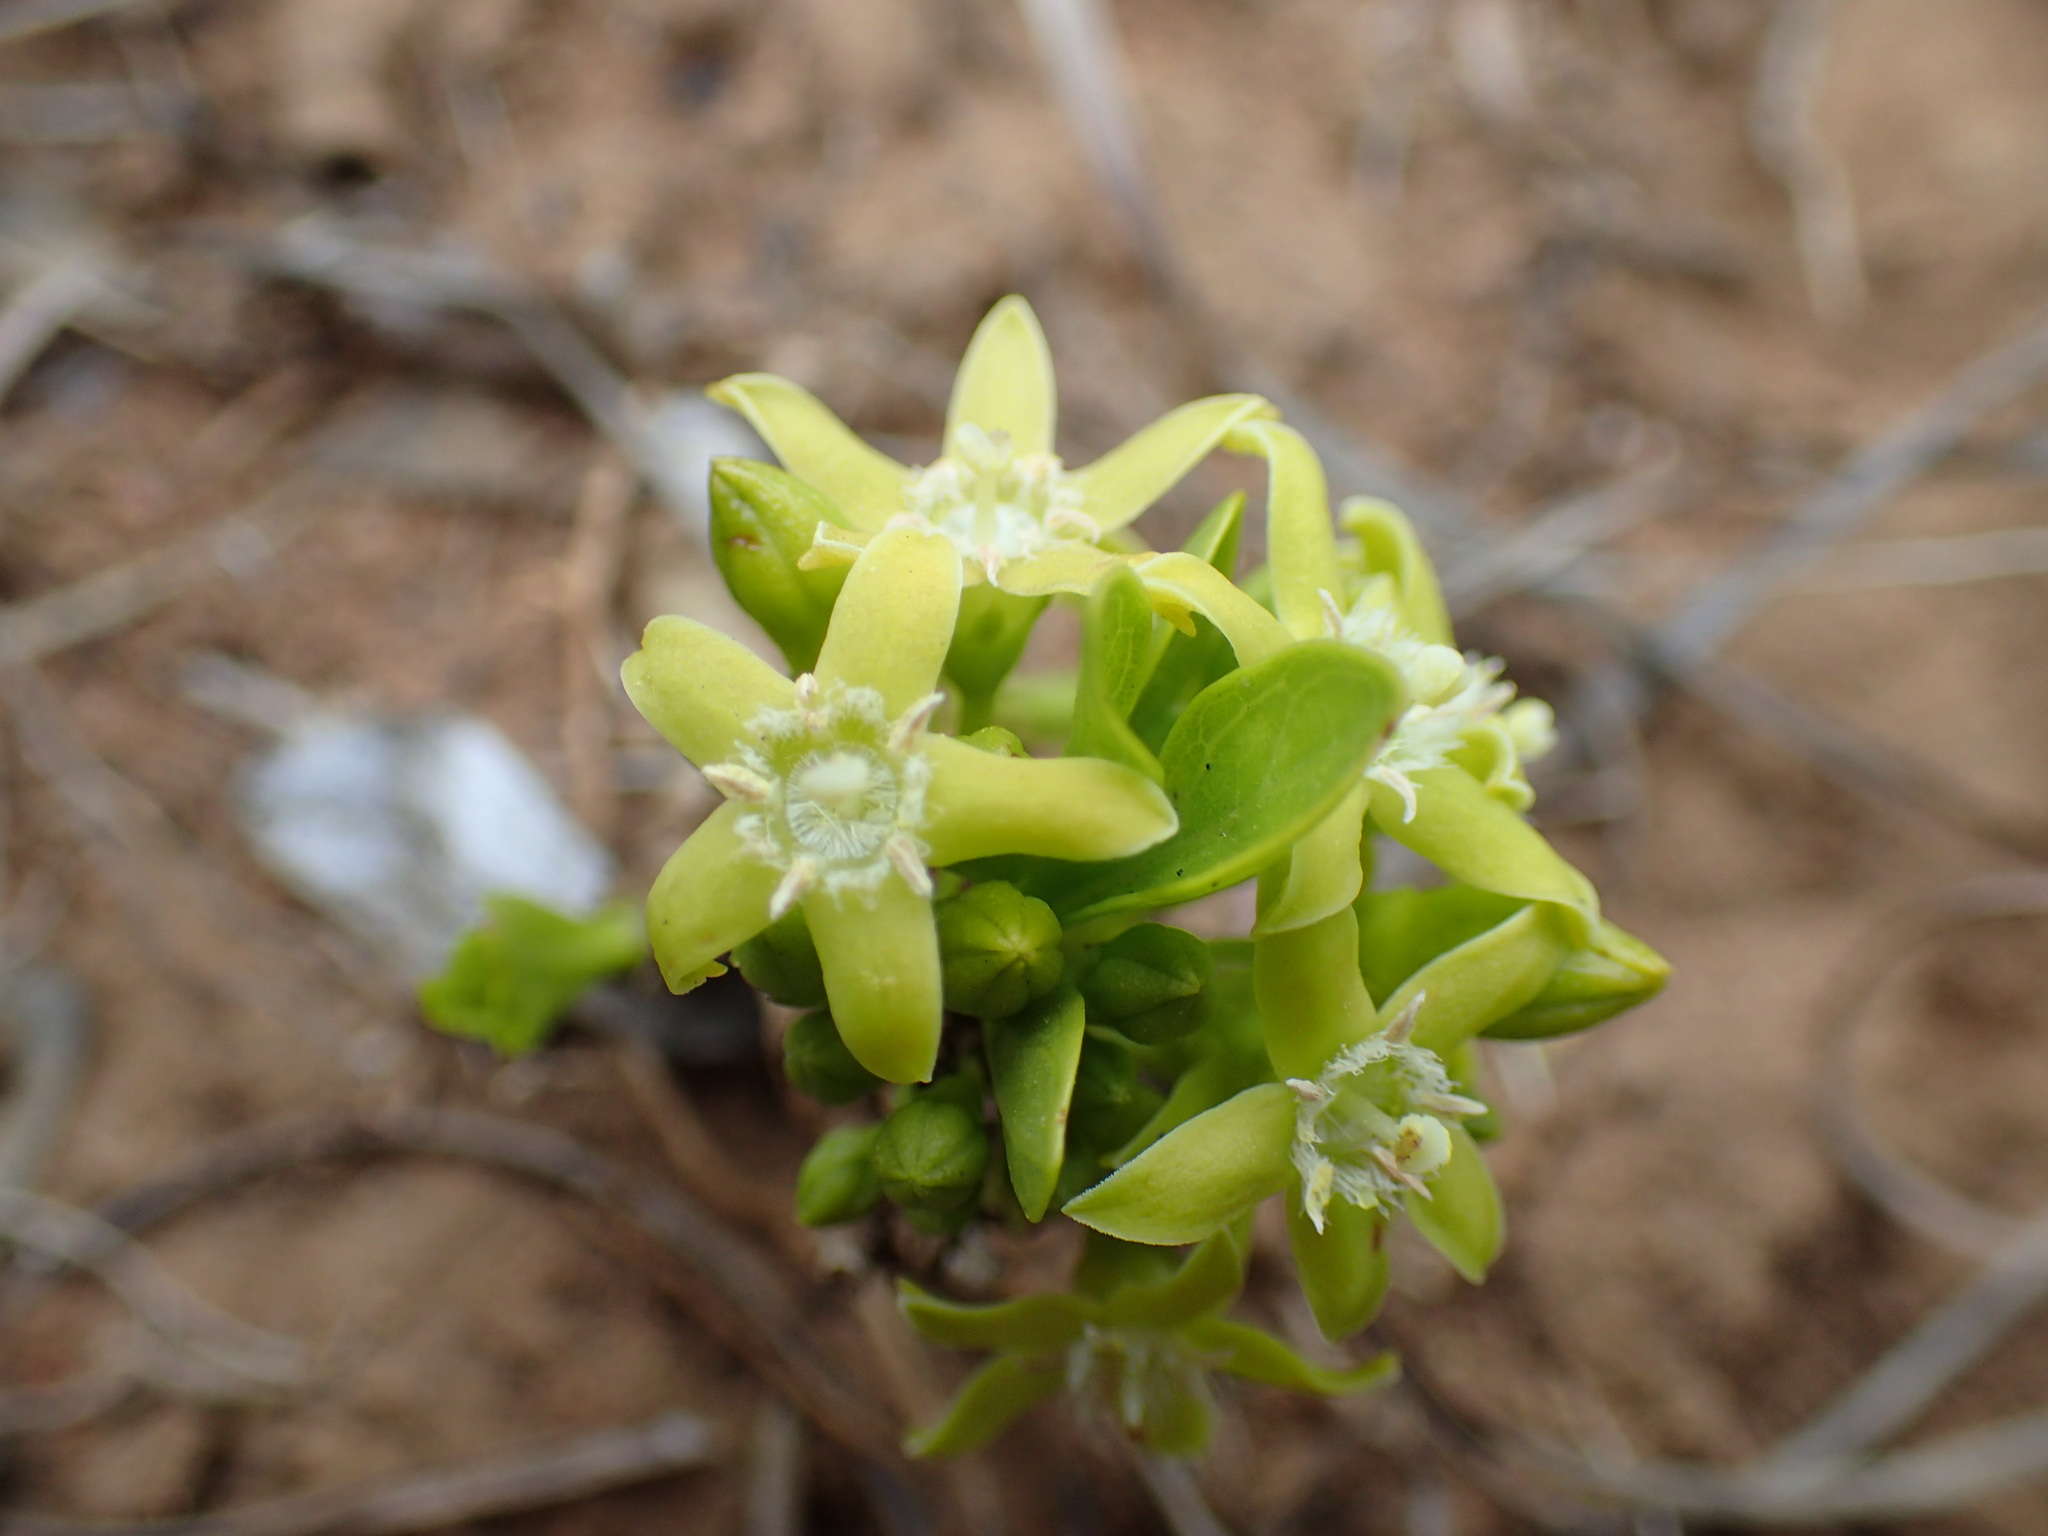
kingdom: Plantae
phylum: Tracheophyta
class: Magnoliopsida
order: Gentianales
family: Rubiaceae
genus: Bridsonia
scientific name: Bridsonia chamaedendrum
